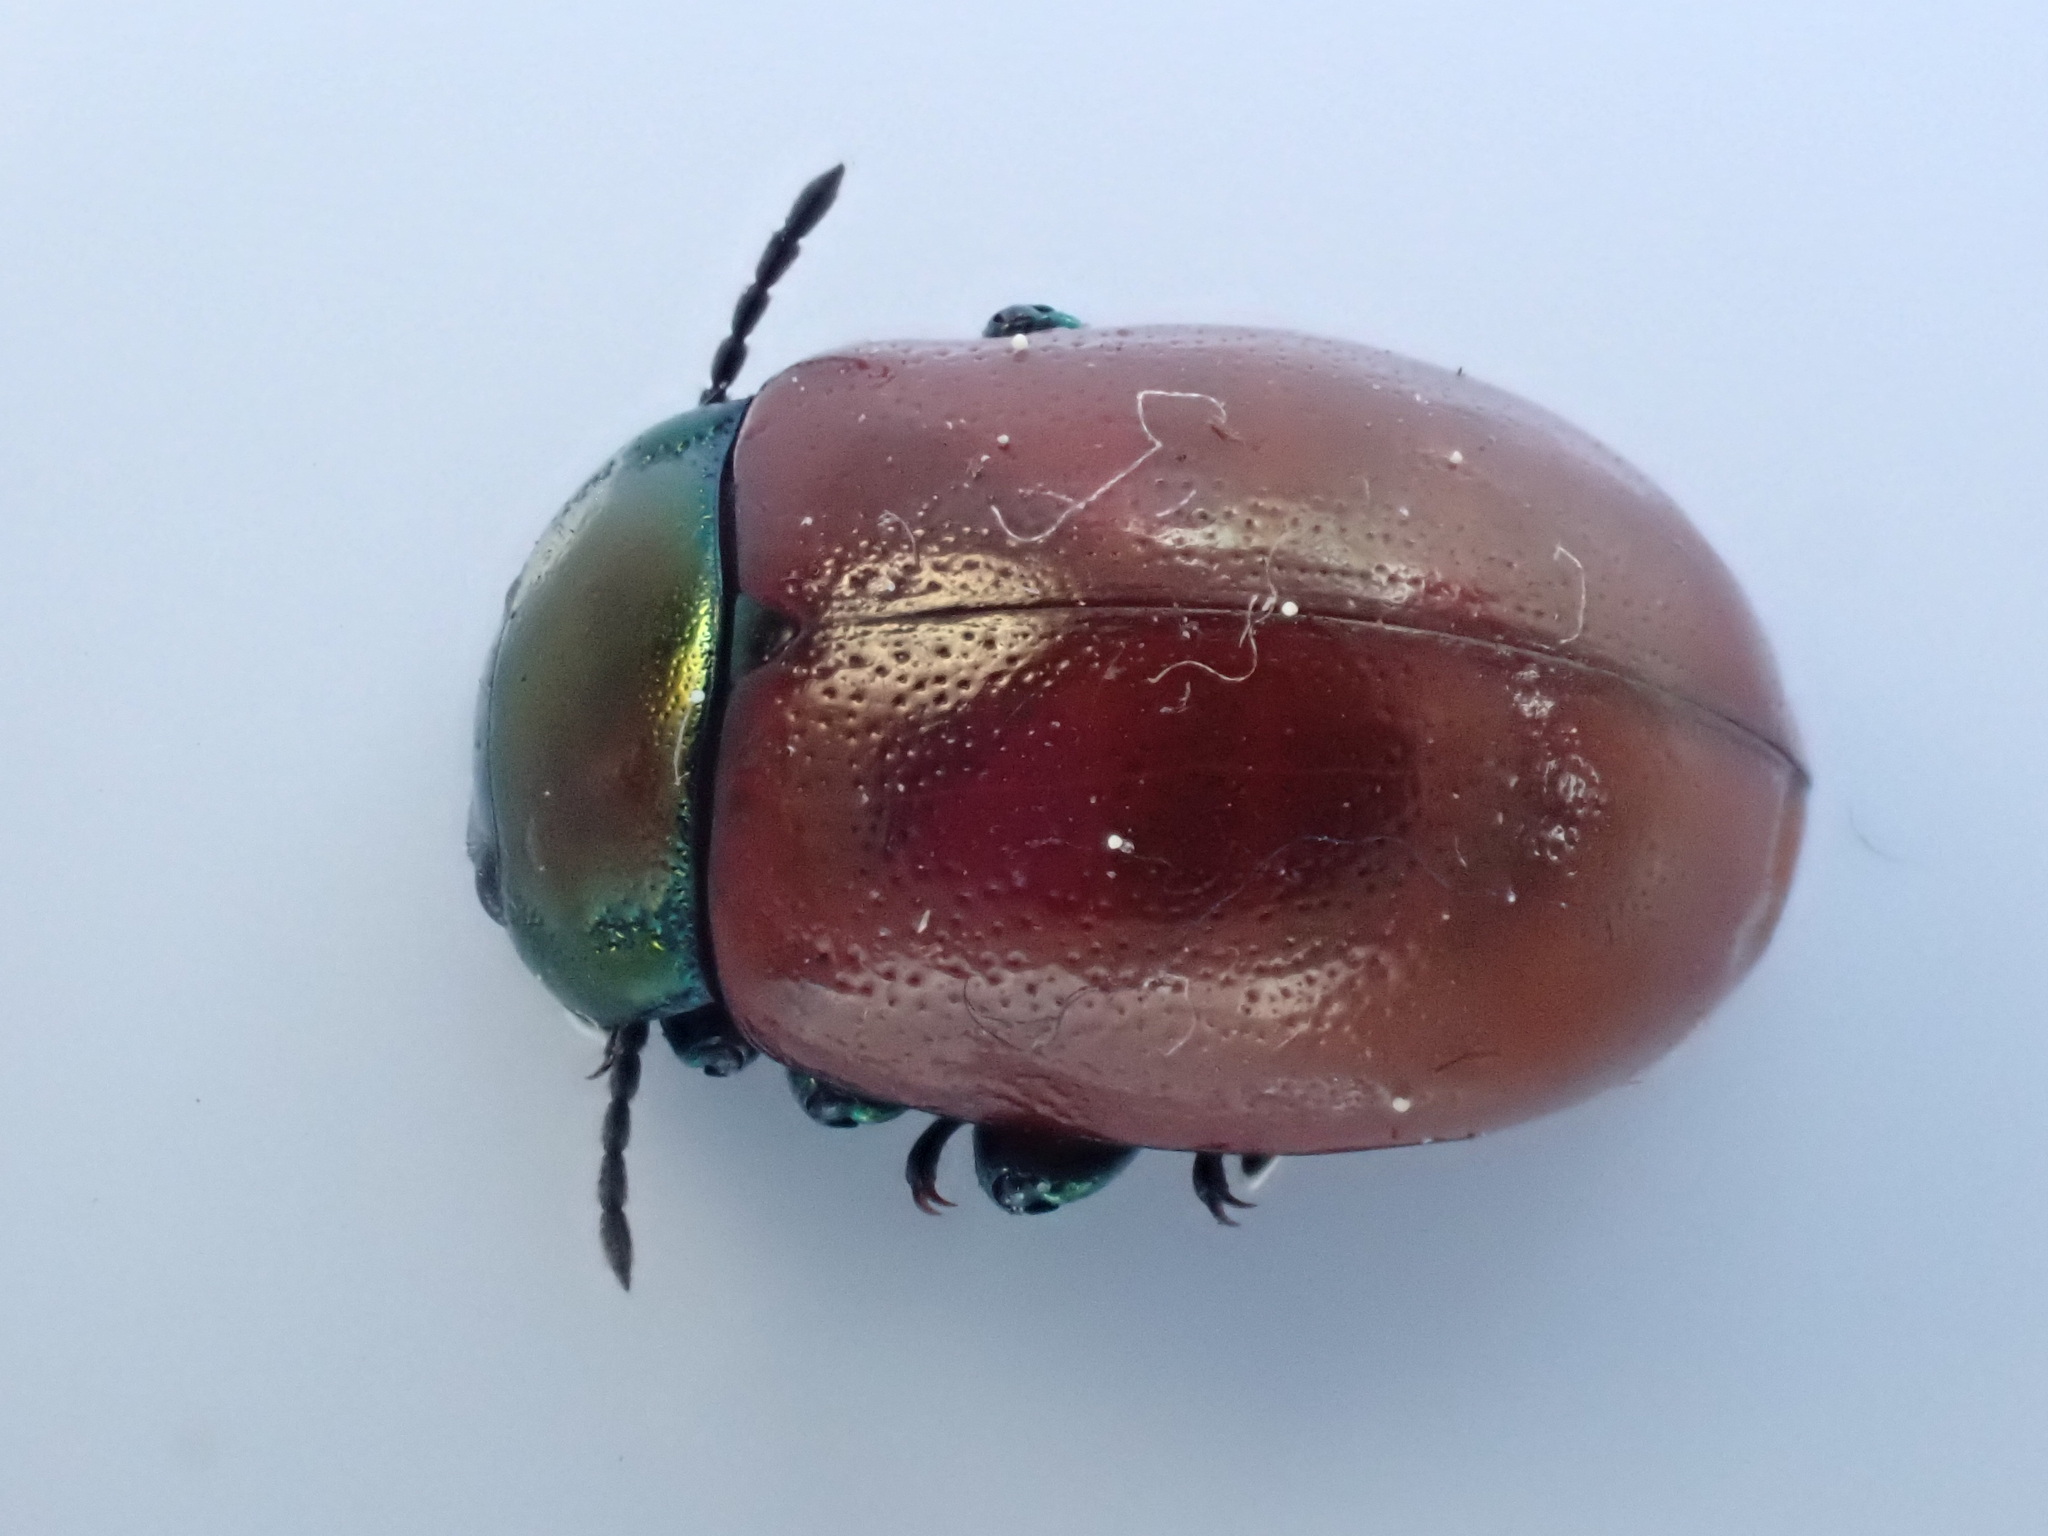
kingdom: Animalia
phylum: Arthropoda
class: Insecta
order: Coleoptera
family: Chrysomelidae
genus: Chrysomela
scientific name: Chrysomela polita
